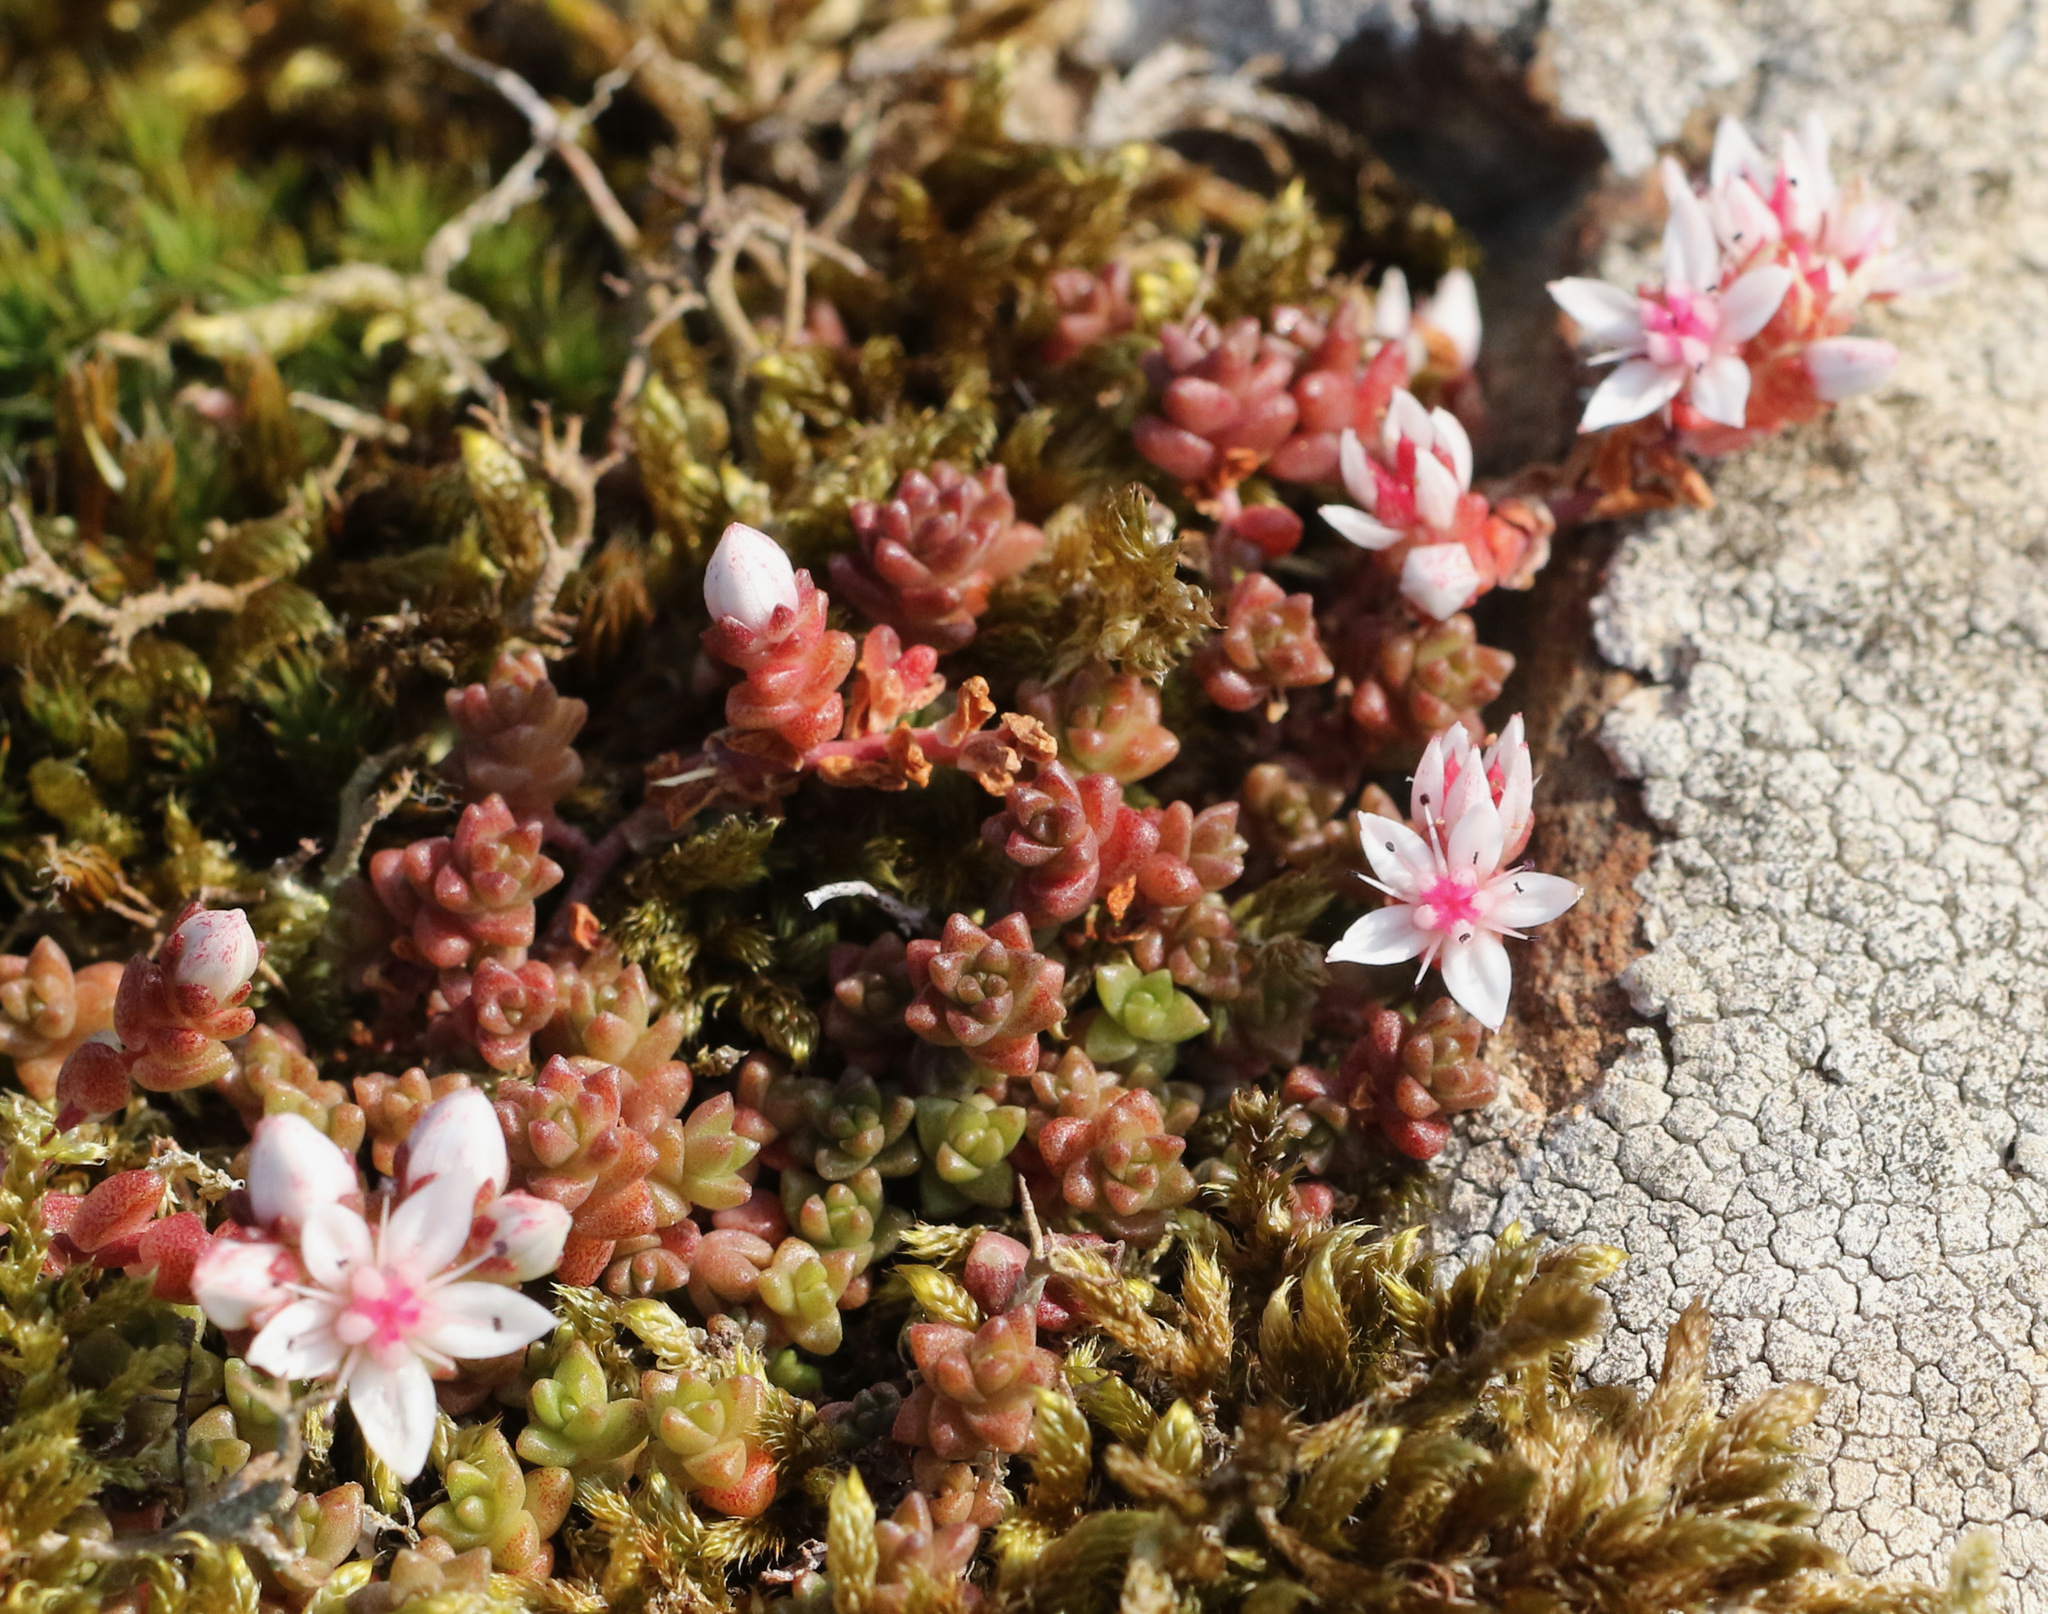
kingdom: Plantae
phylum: Tracheophyta
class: Magnoliopsida
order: Saxifragales
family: Crassulaceae
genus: Sedum
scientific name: Sedum anglicum
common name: English stonecrop
